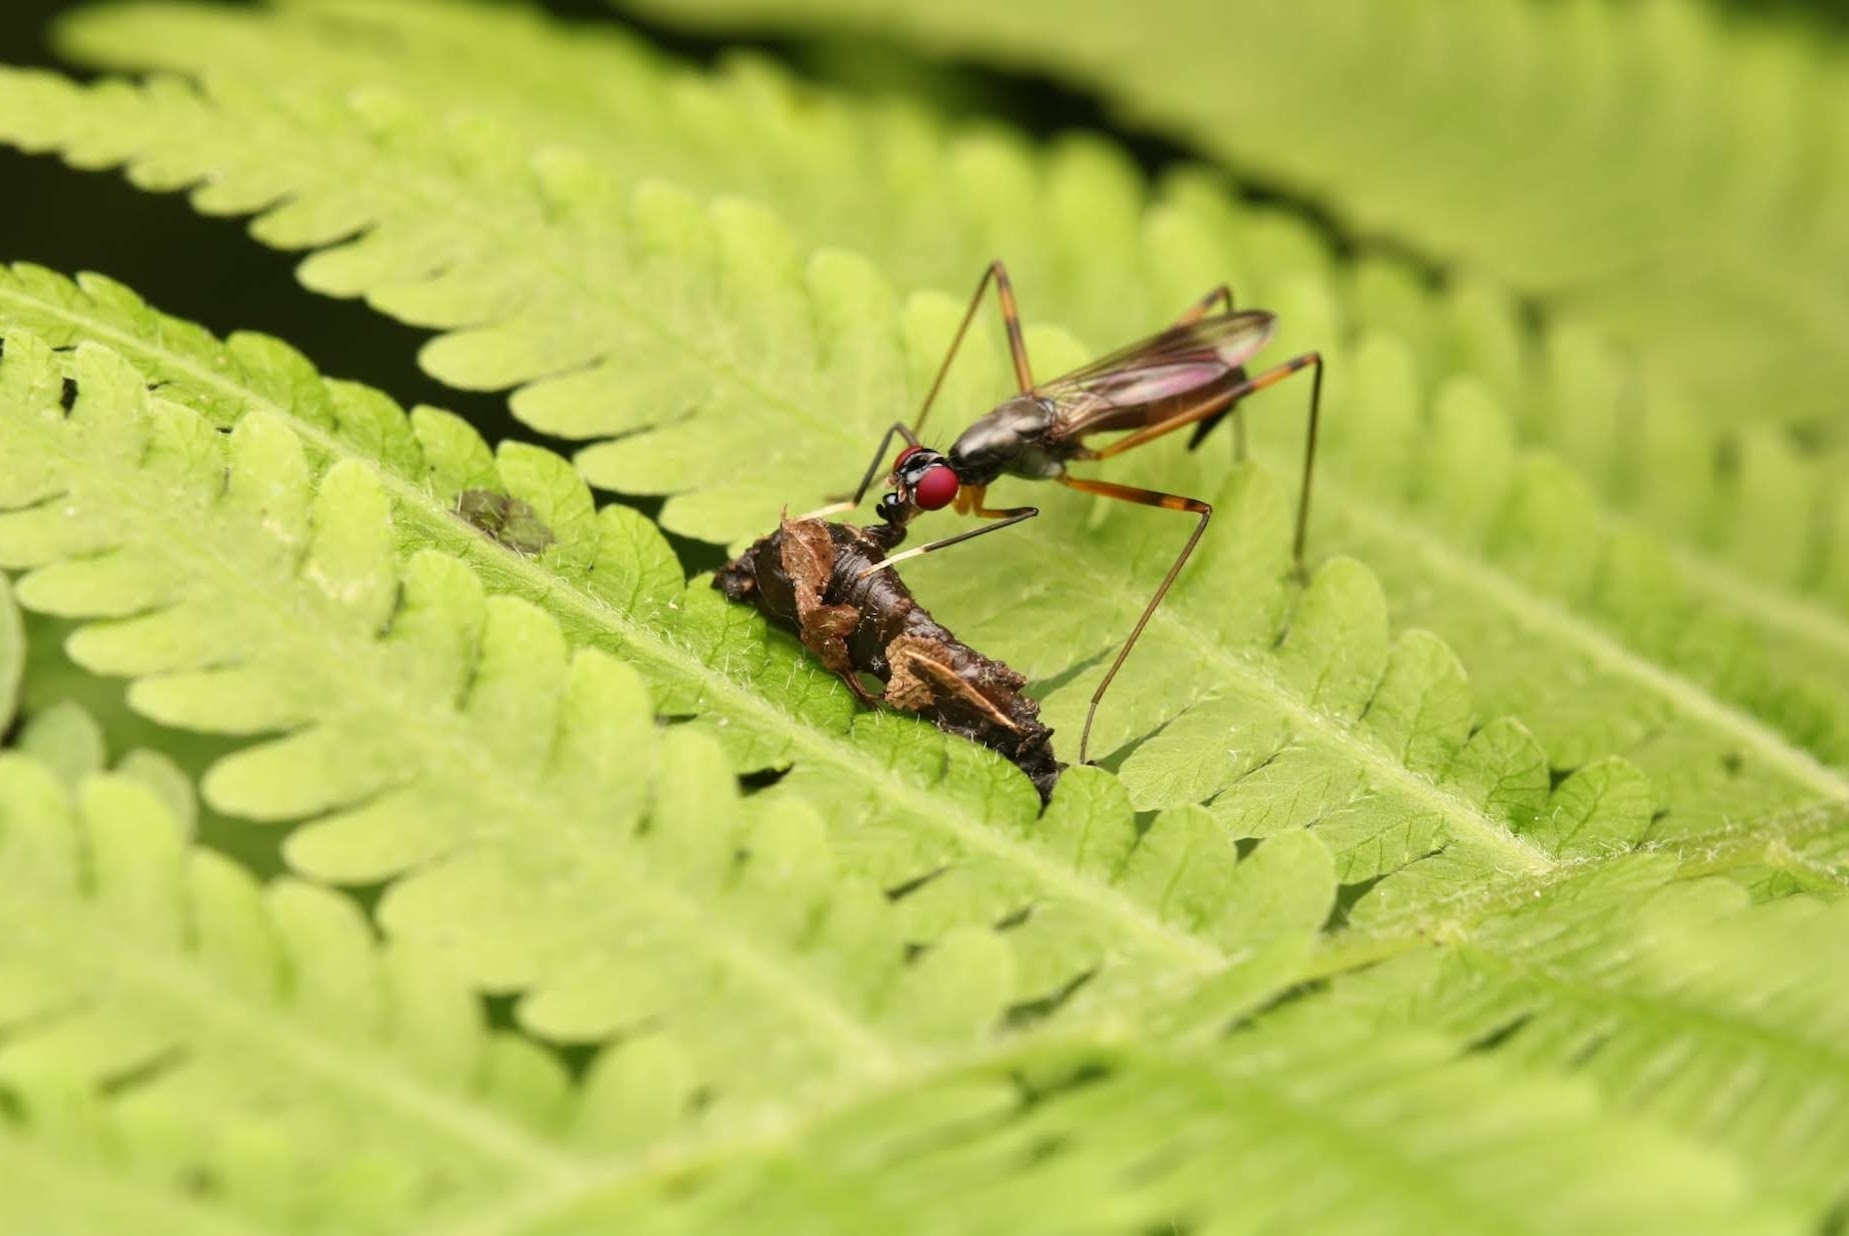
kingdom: Animalia
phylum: Arthropoda
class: Insecta
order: Diptera
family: Micropezidae
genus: Rainieria
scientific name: Rainieria antennaepes
